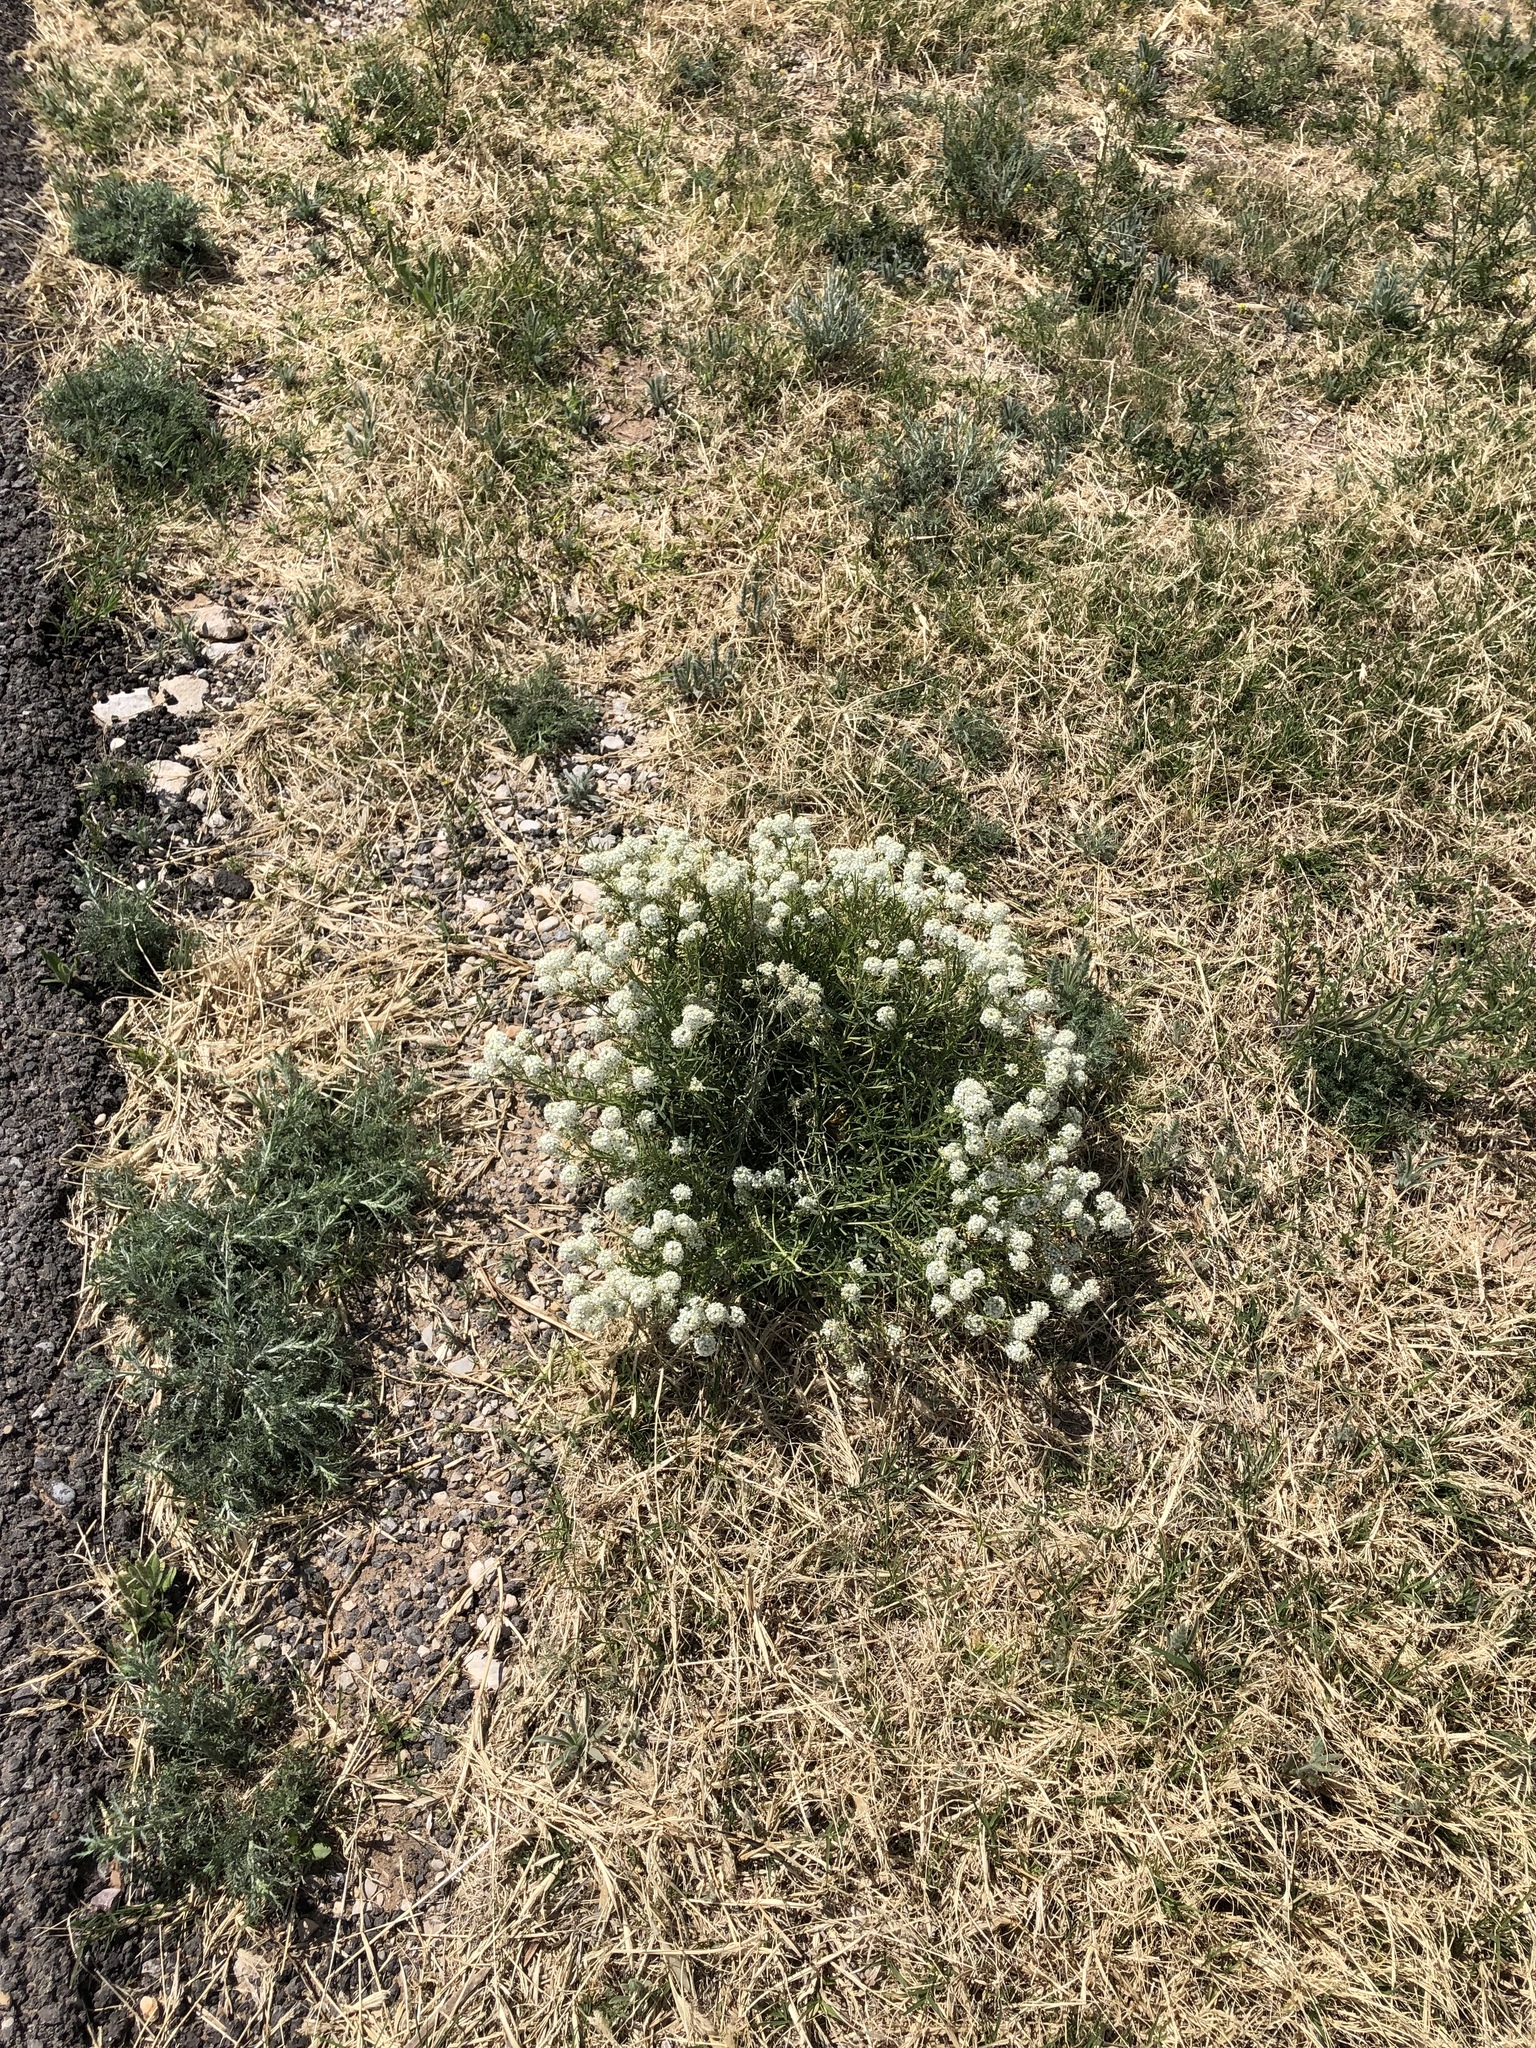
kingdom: Plantae
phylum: Tracheophyta
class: Magnoliopsida
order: Brassicales
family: Brassicaceae
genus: Lepidium
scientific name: Lepidium alyssoides
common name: Mesa pepperweed
